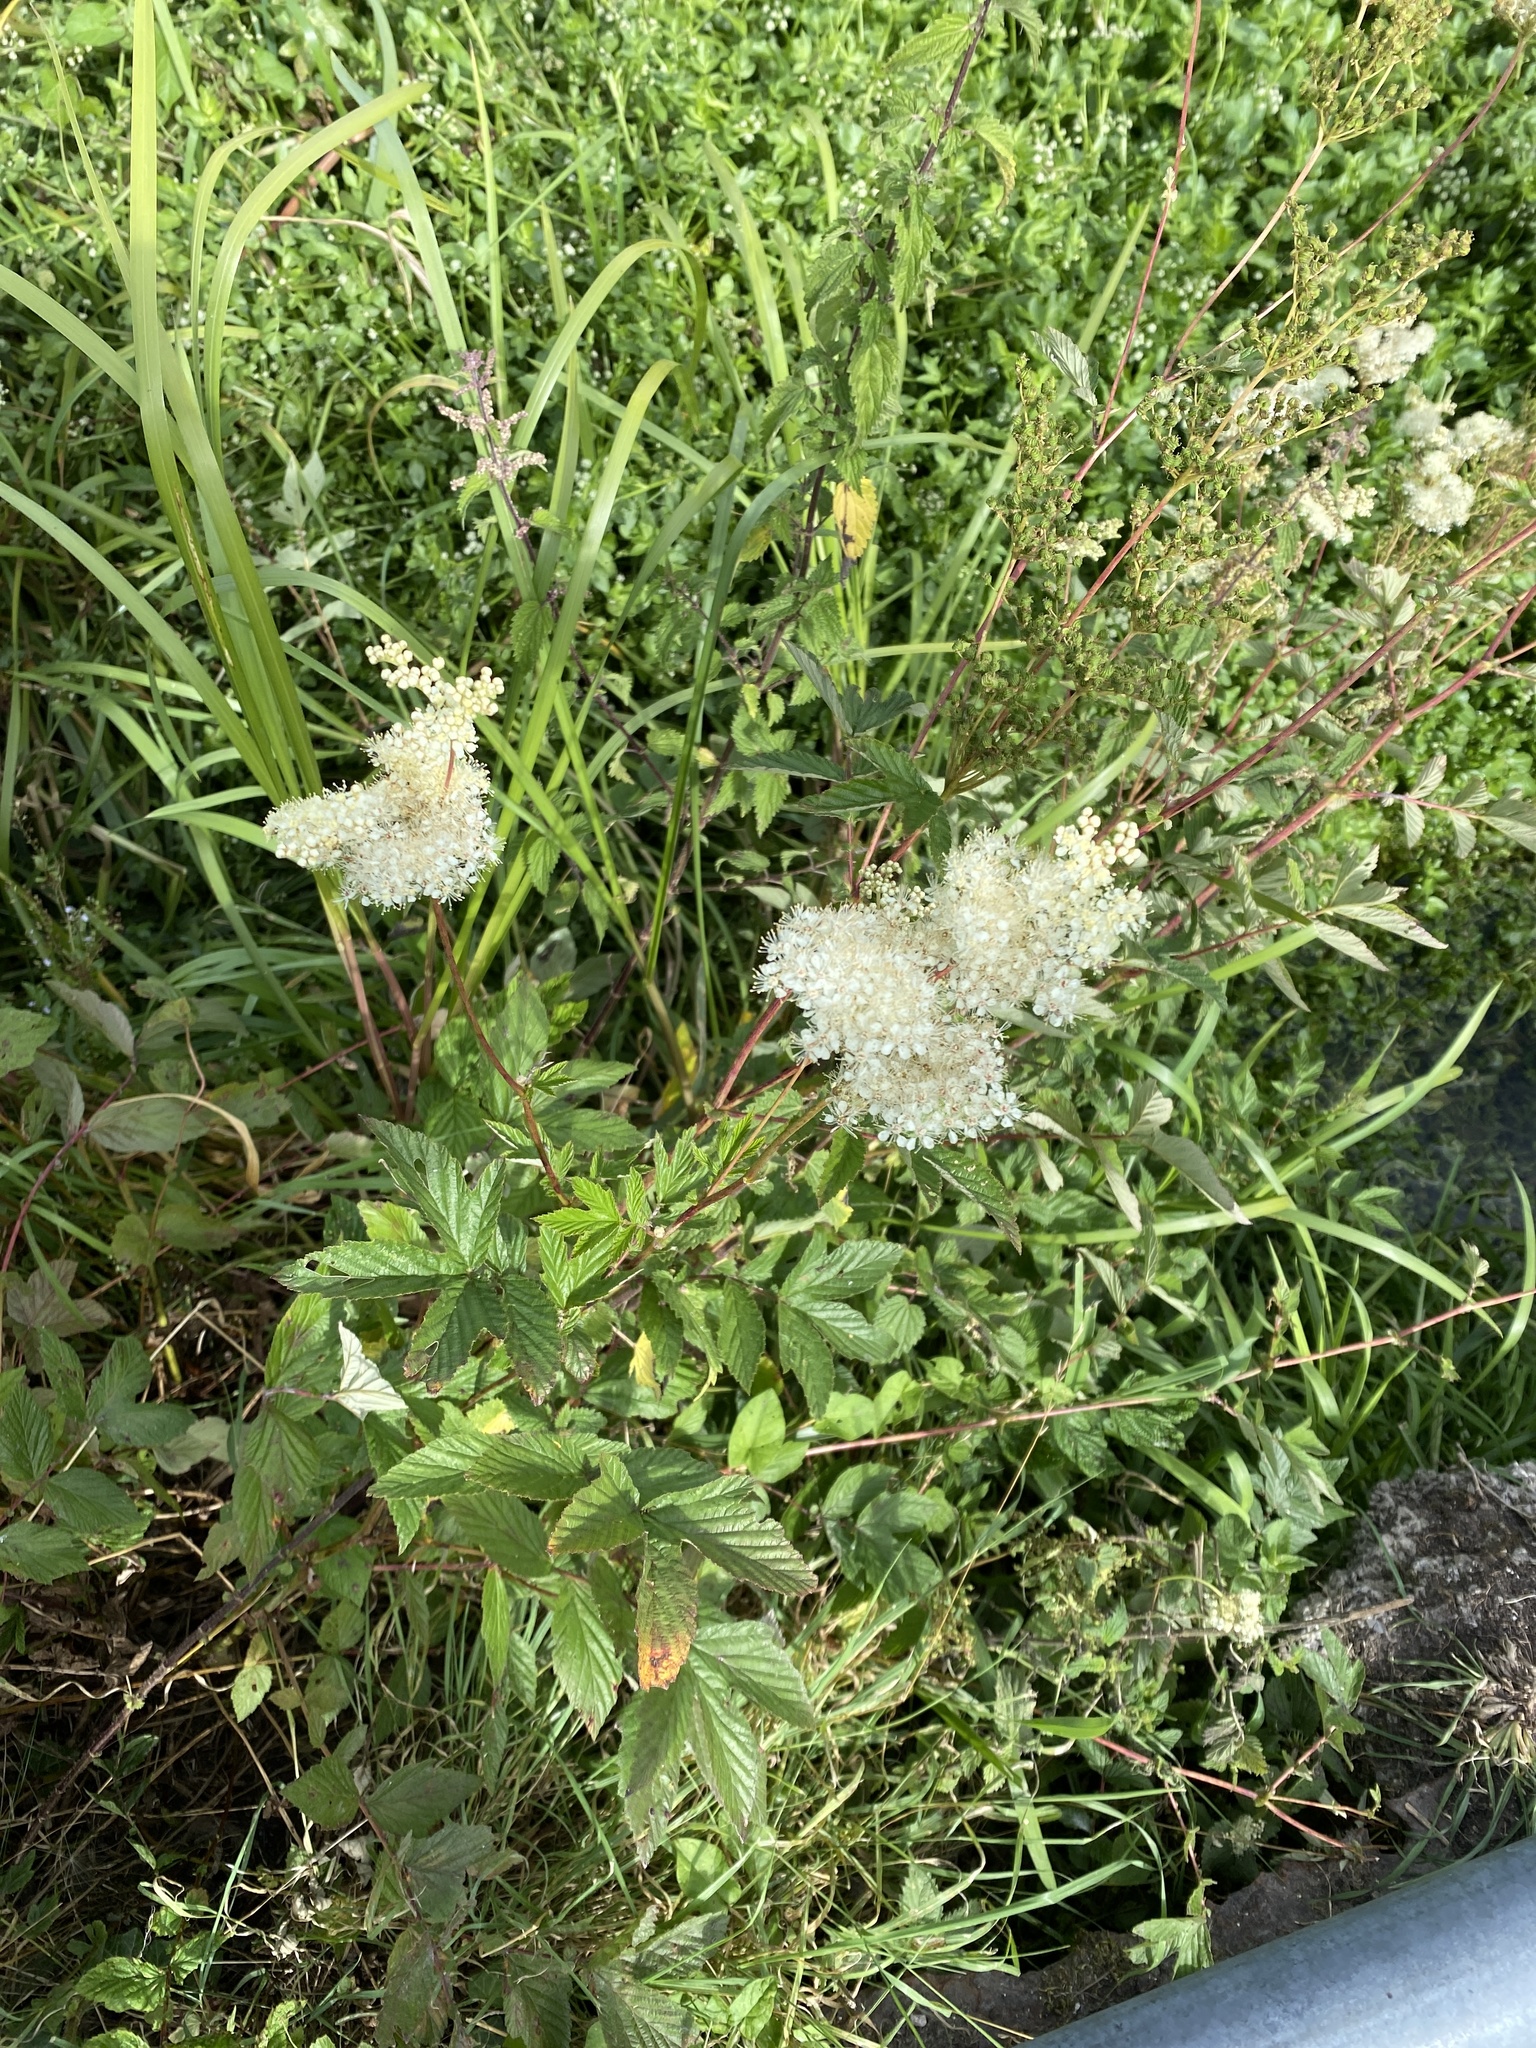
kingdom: Plantae
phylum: Tracheophyta
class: Magnoliopsida
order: Rosales
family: Rosaceae
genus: Filipendula
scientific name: Filipendula ulmaria
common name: Meadowsweet
